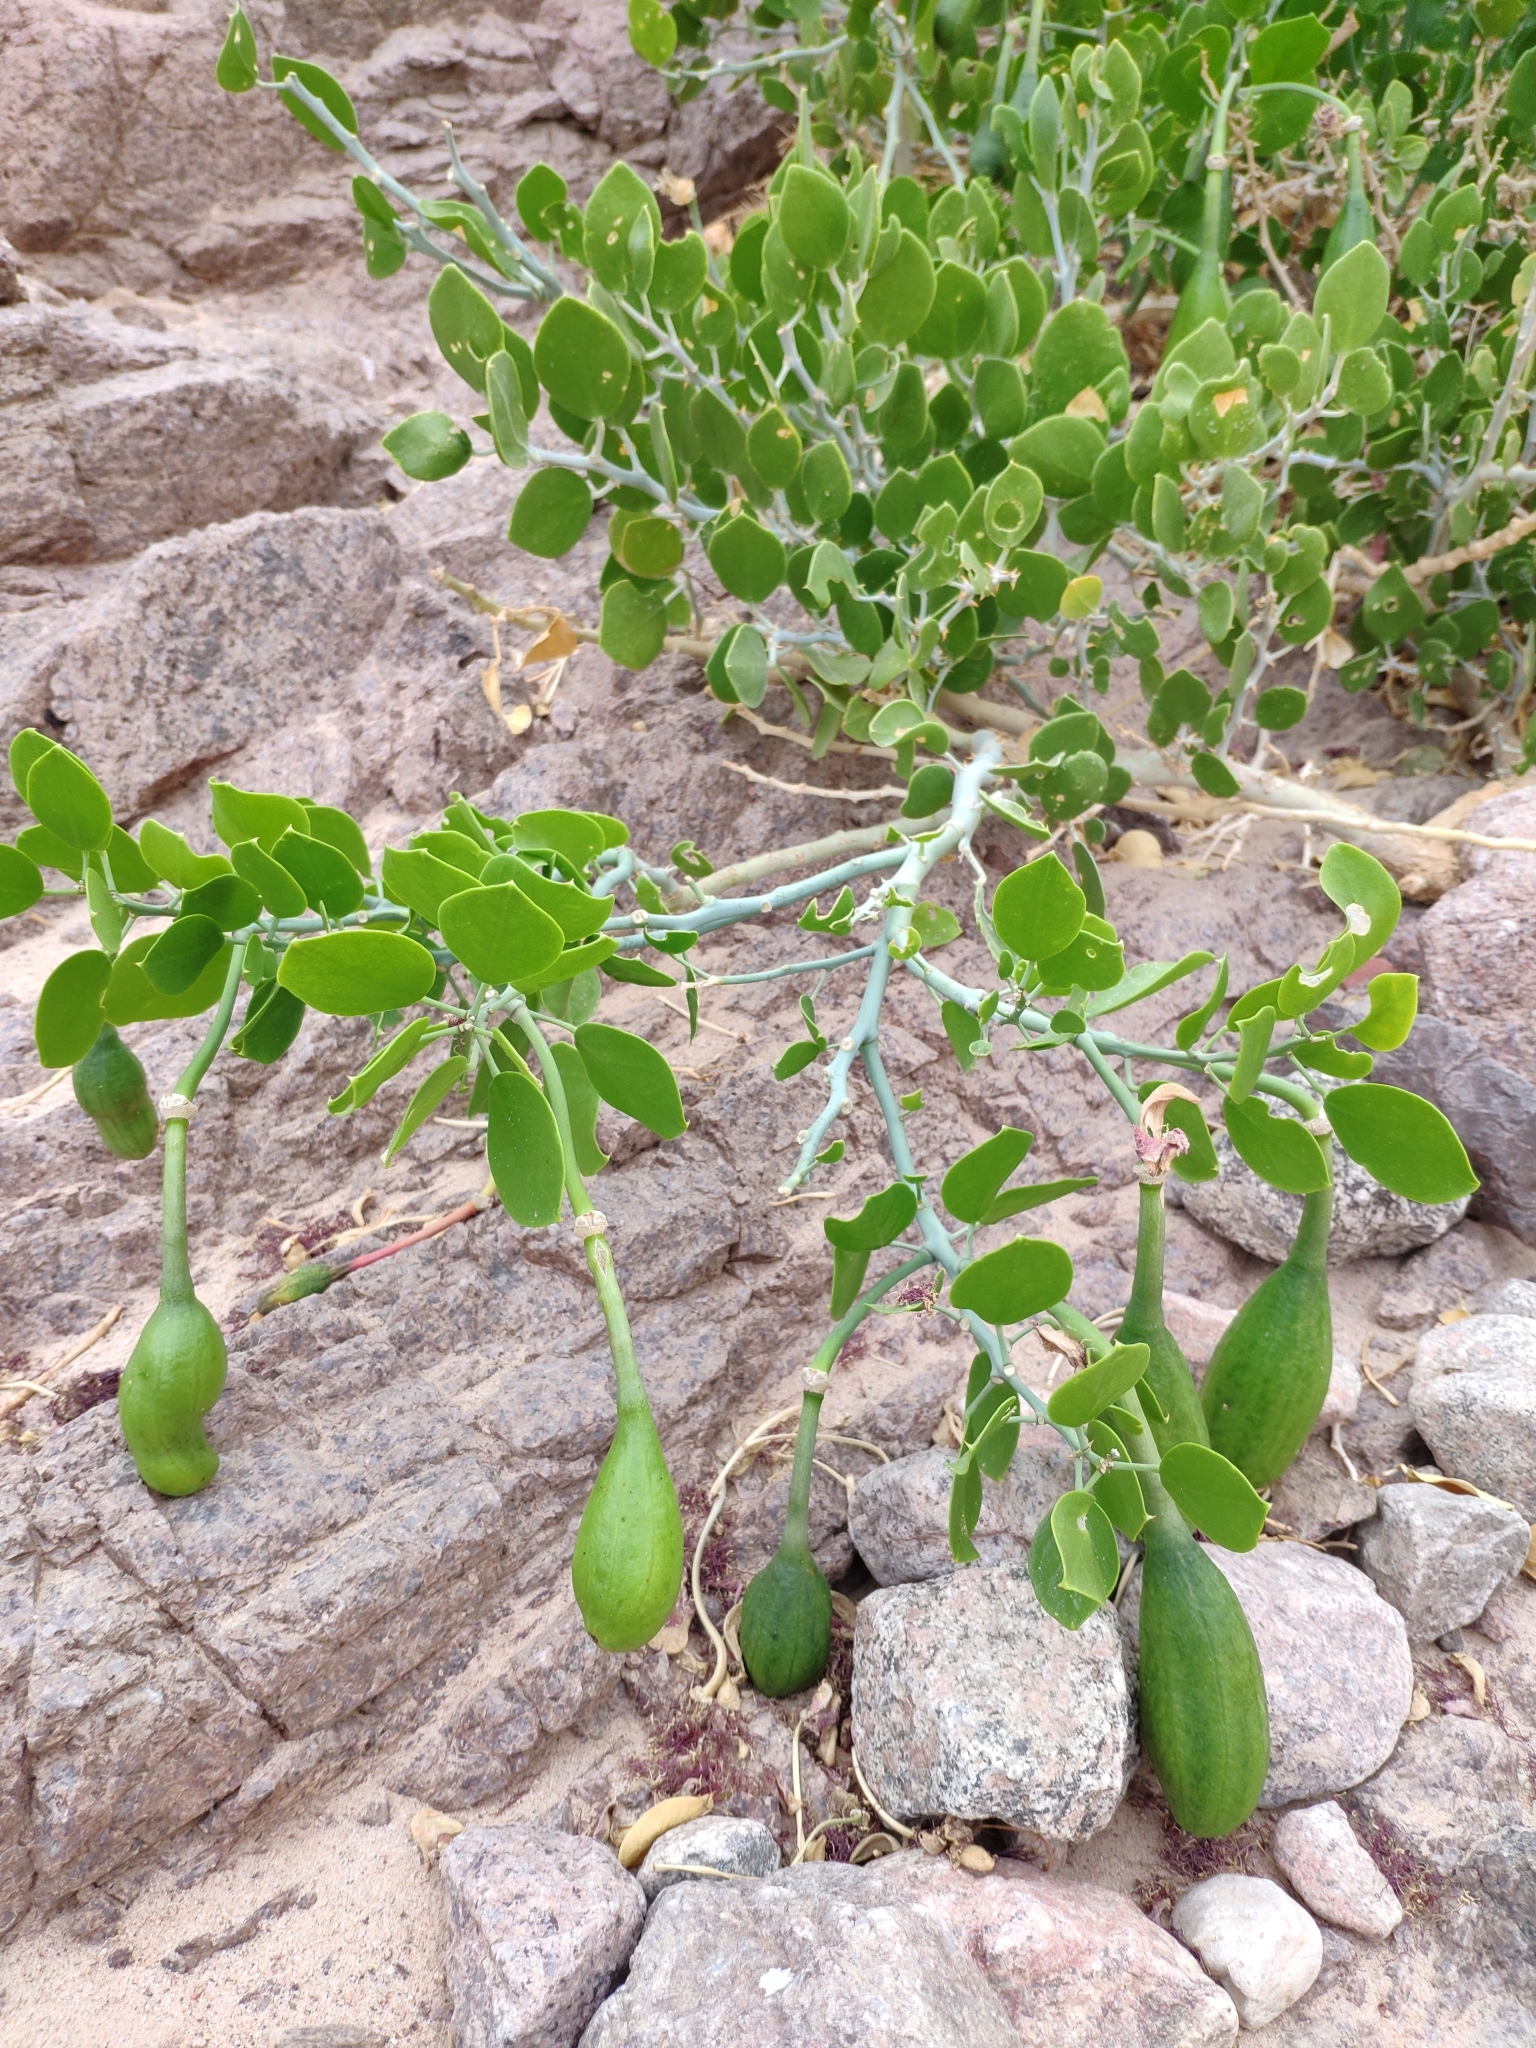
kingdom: Plantae
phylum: Tracheophyta
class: Magnoliopsida
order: Brassicales
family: Capparaceae
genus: Capparis
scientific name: Capparis cartilaginea
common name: Caper
